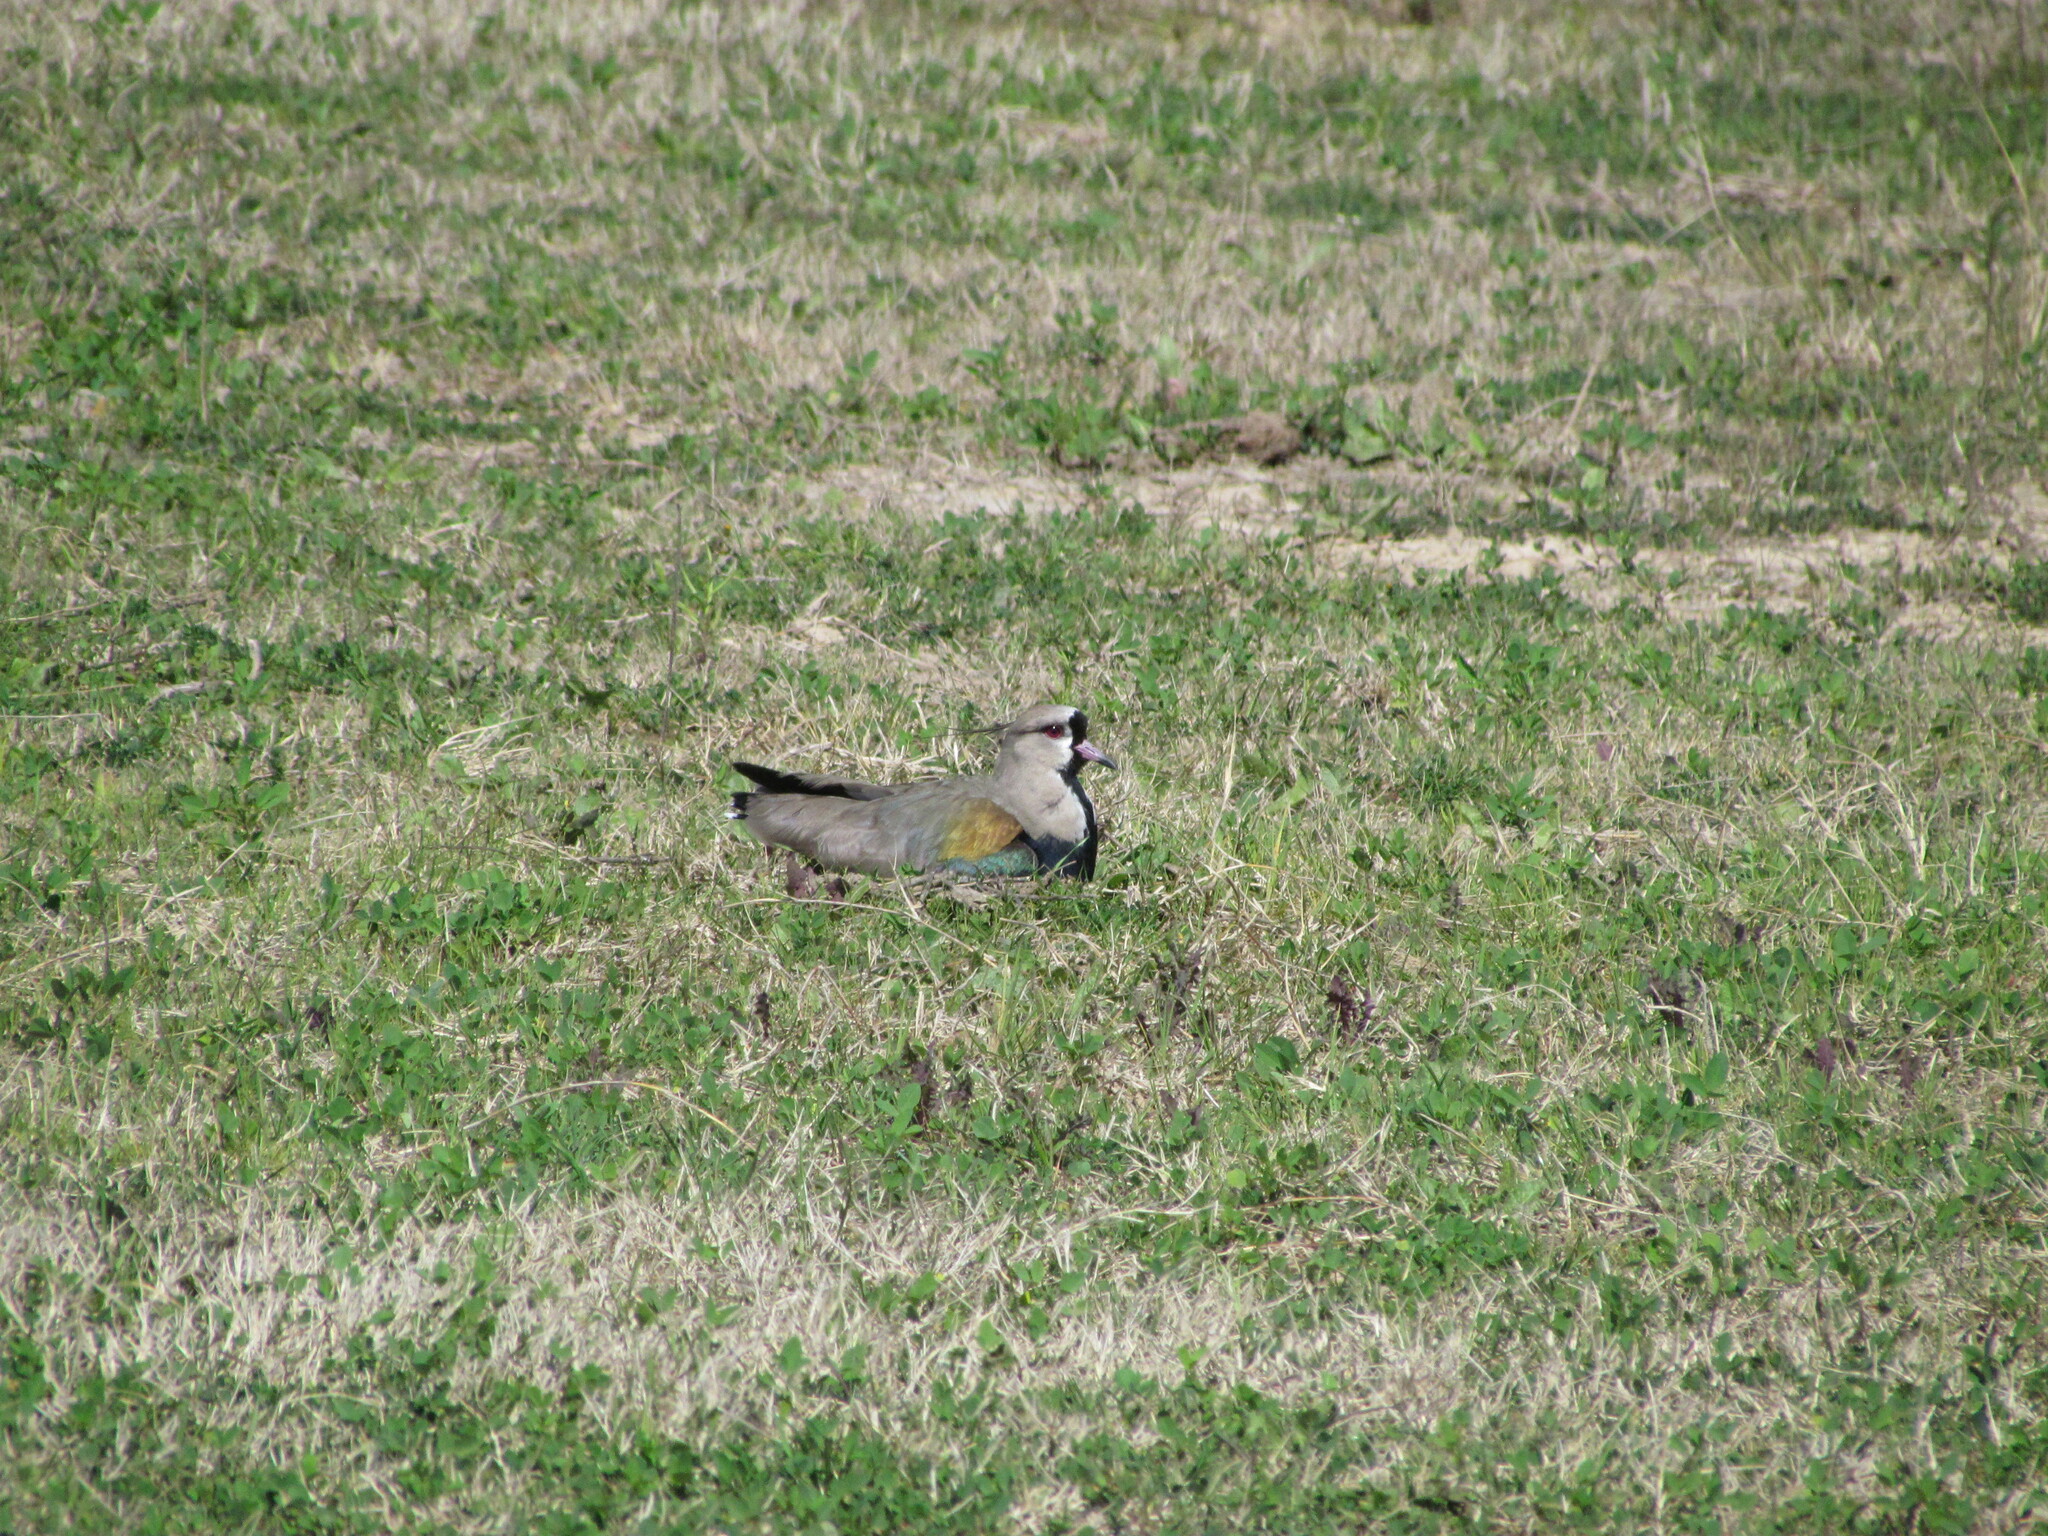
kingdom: Animalia
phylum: Chordata
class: Aves
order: Charadriiformes
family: Charadriidae
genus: Vanellus
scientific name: Vanellus chilensis
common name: Southern lapwing
